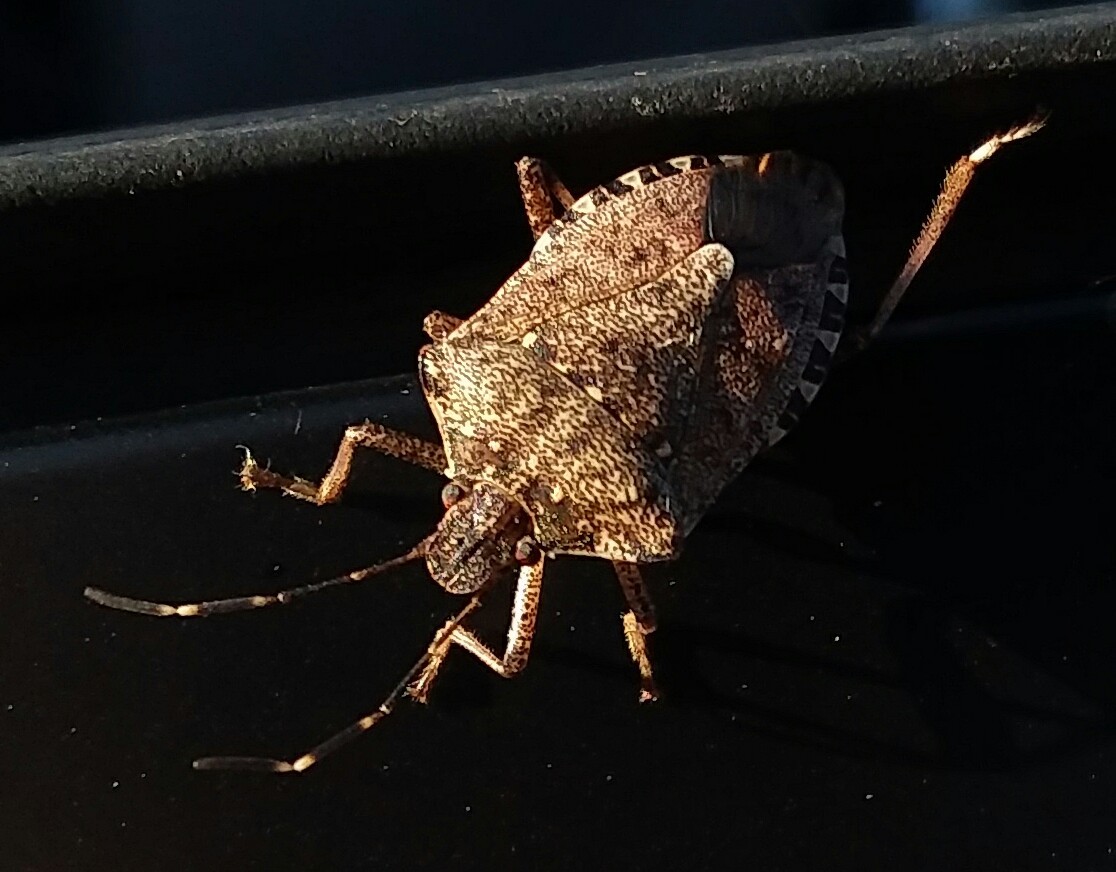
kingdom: Animalia
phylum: Arthropoda
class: Insecta
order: Hemiptera
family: Pentatomidae
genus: Halyomorpha
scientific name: Halyomorpha halys
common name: Brown marmorated stink bug
